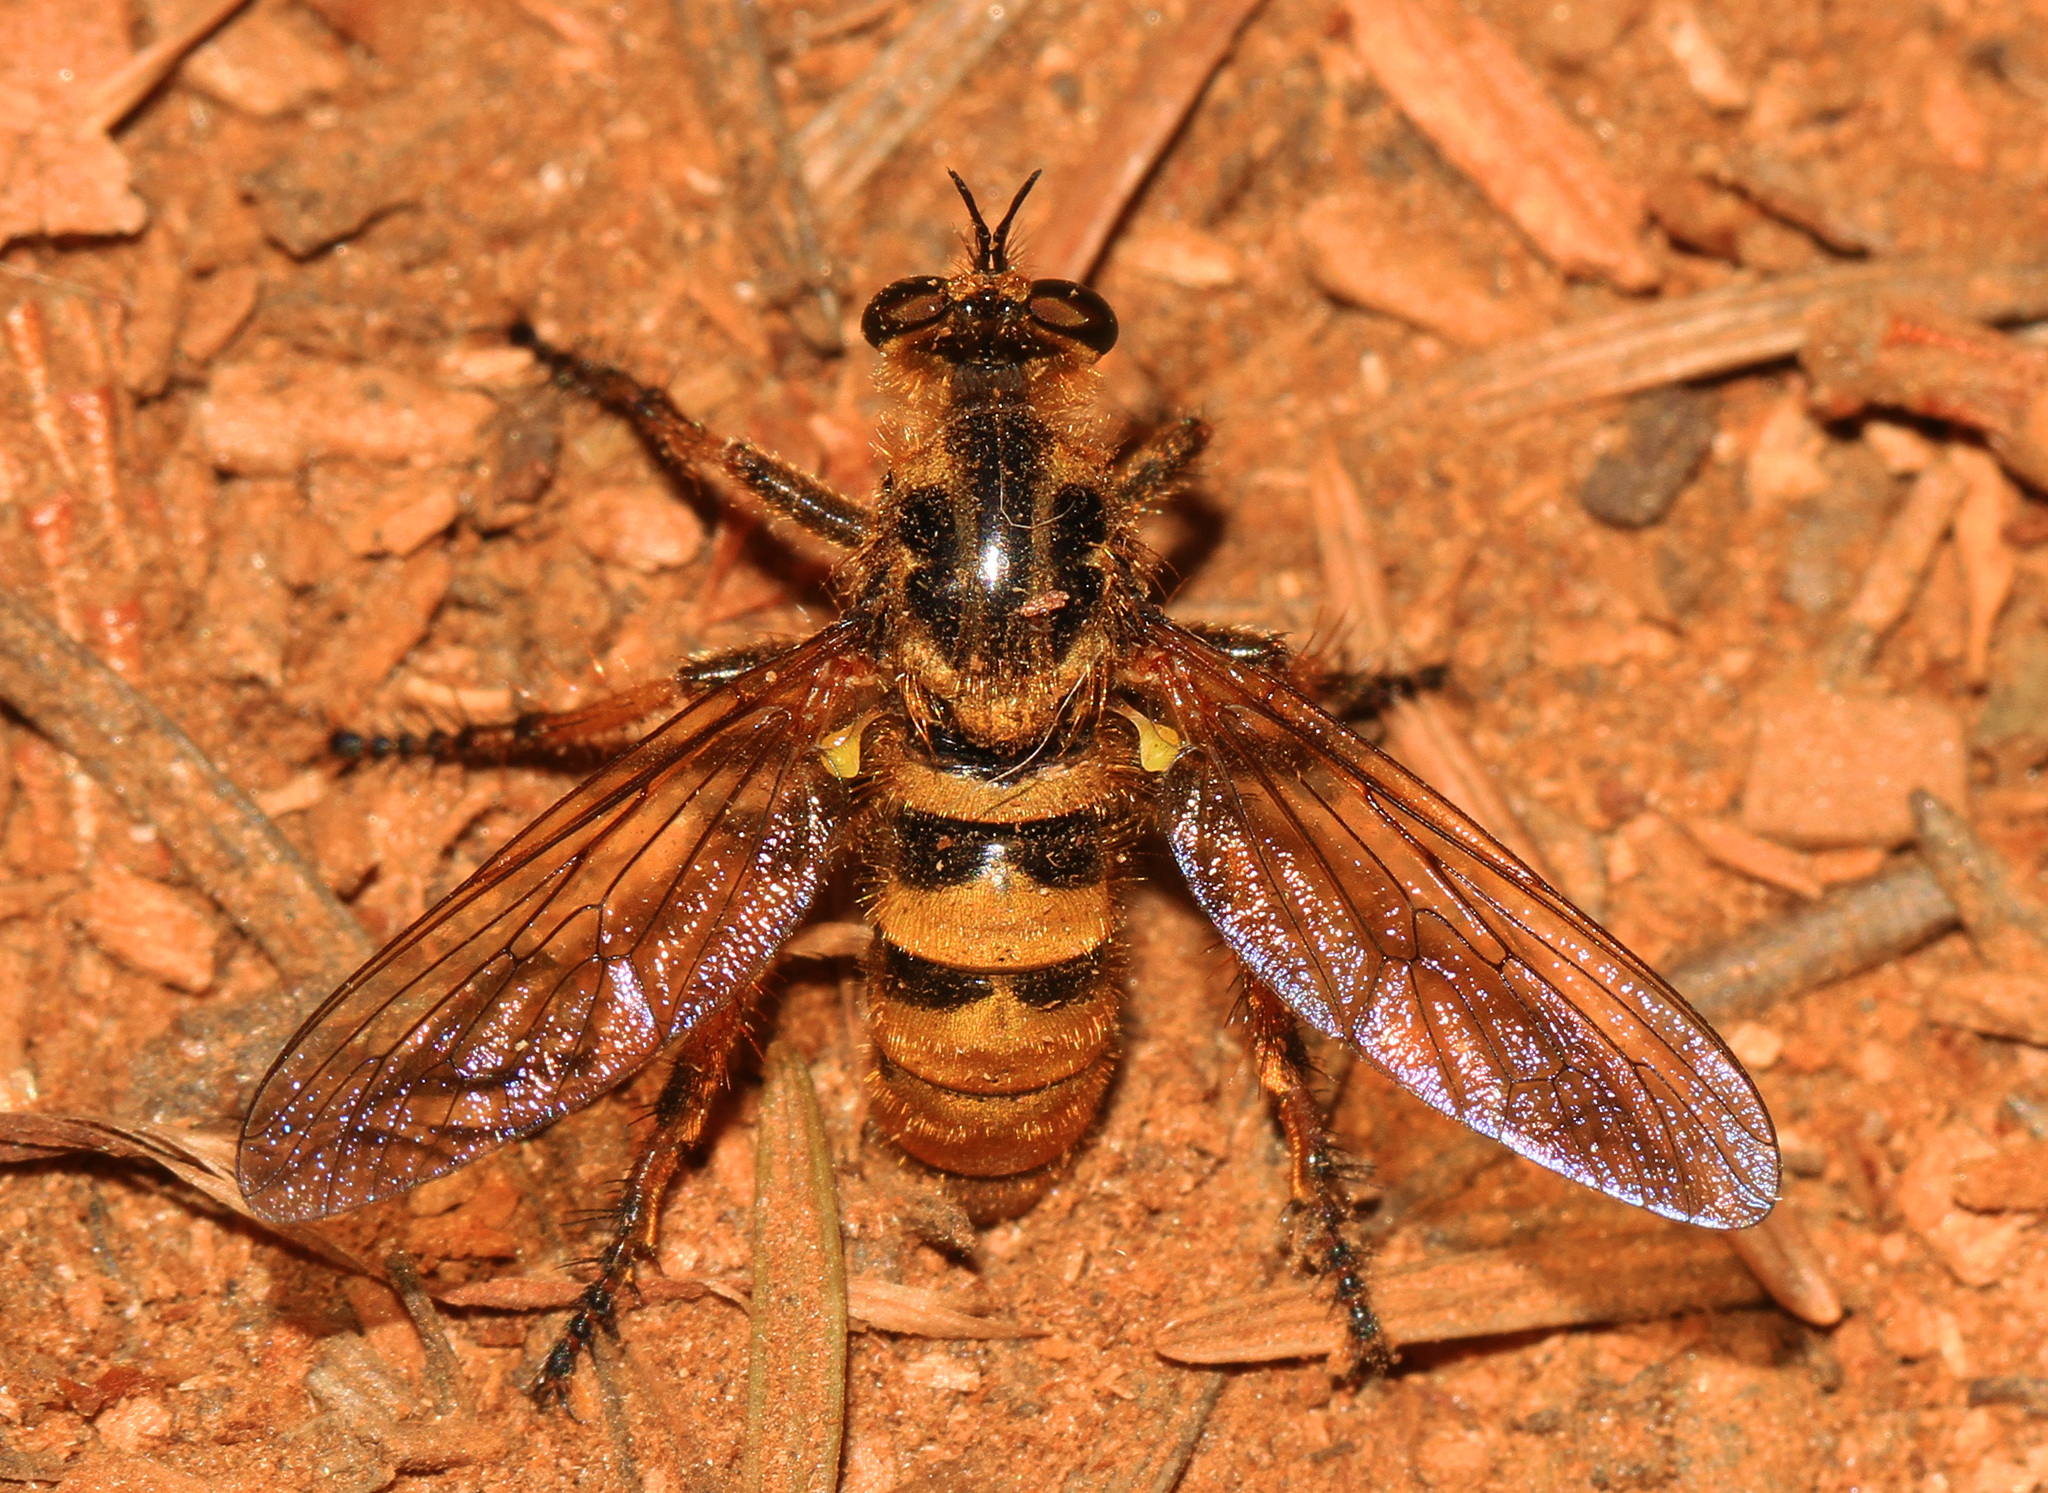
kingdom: Animalia
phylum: Arthropoda
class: Insecta
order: Diptera
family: Asilidae
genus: Callinicus
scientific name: Callinicus pollenius
